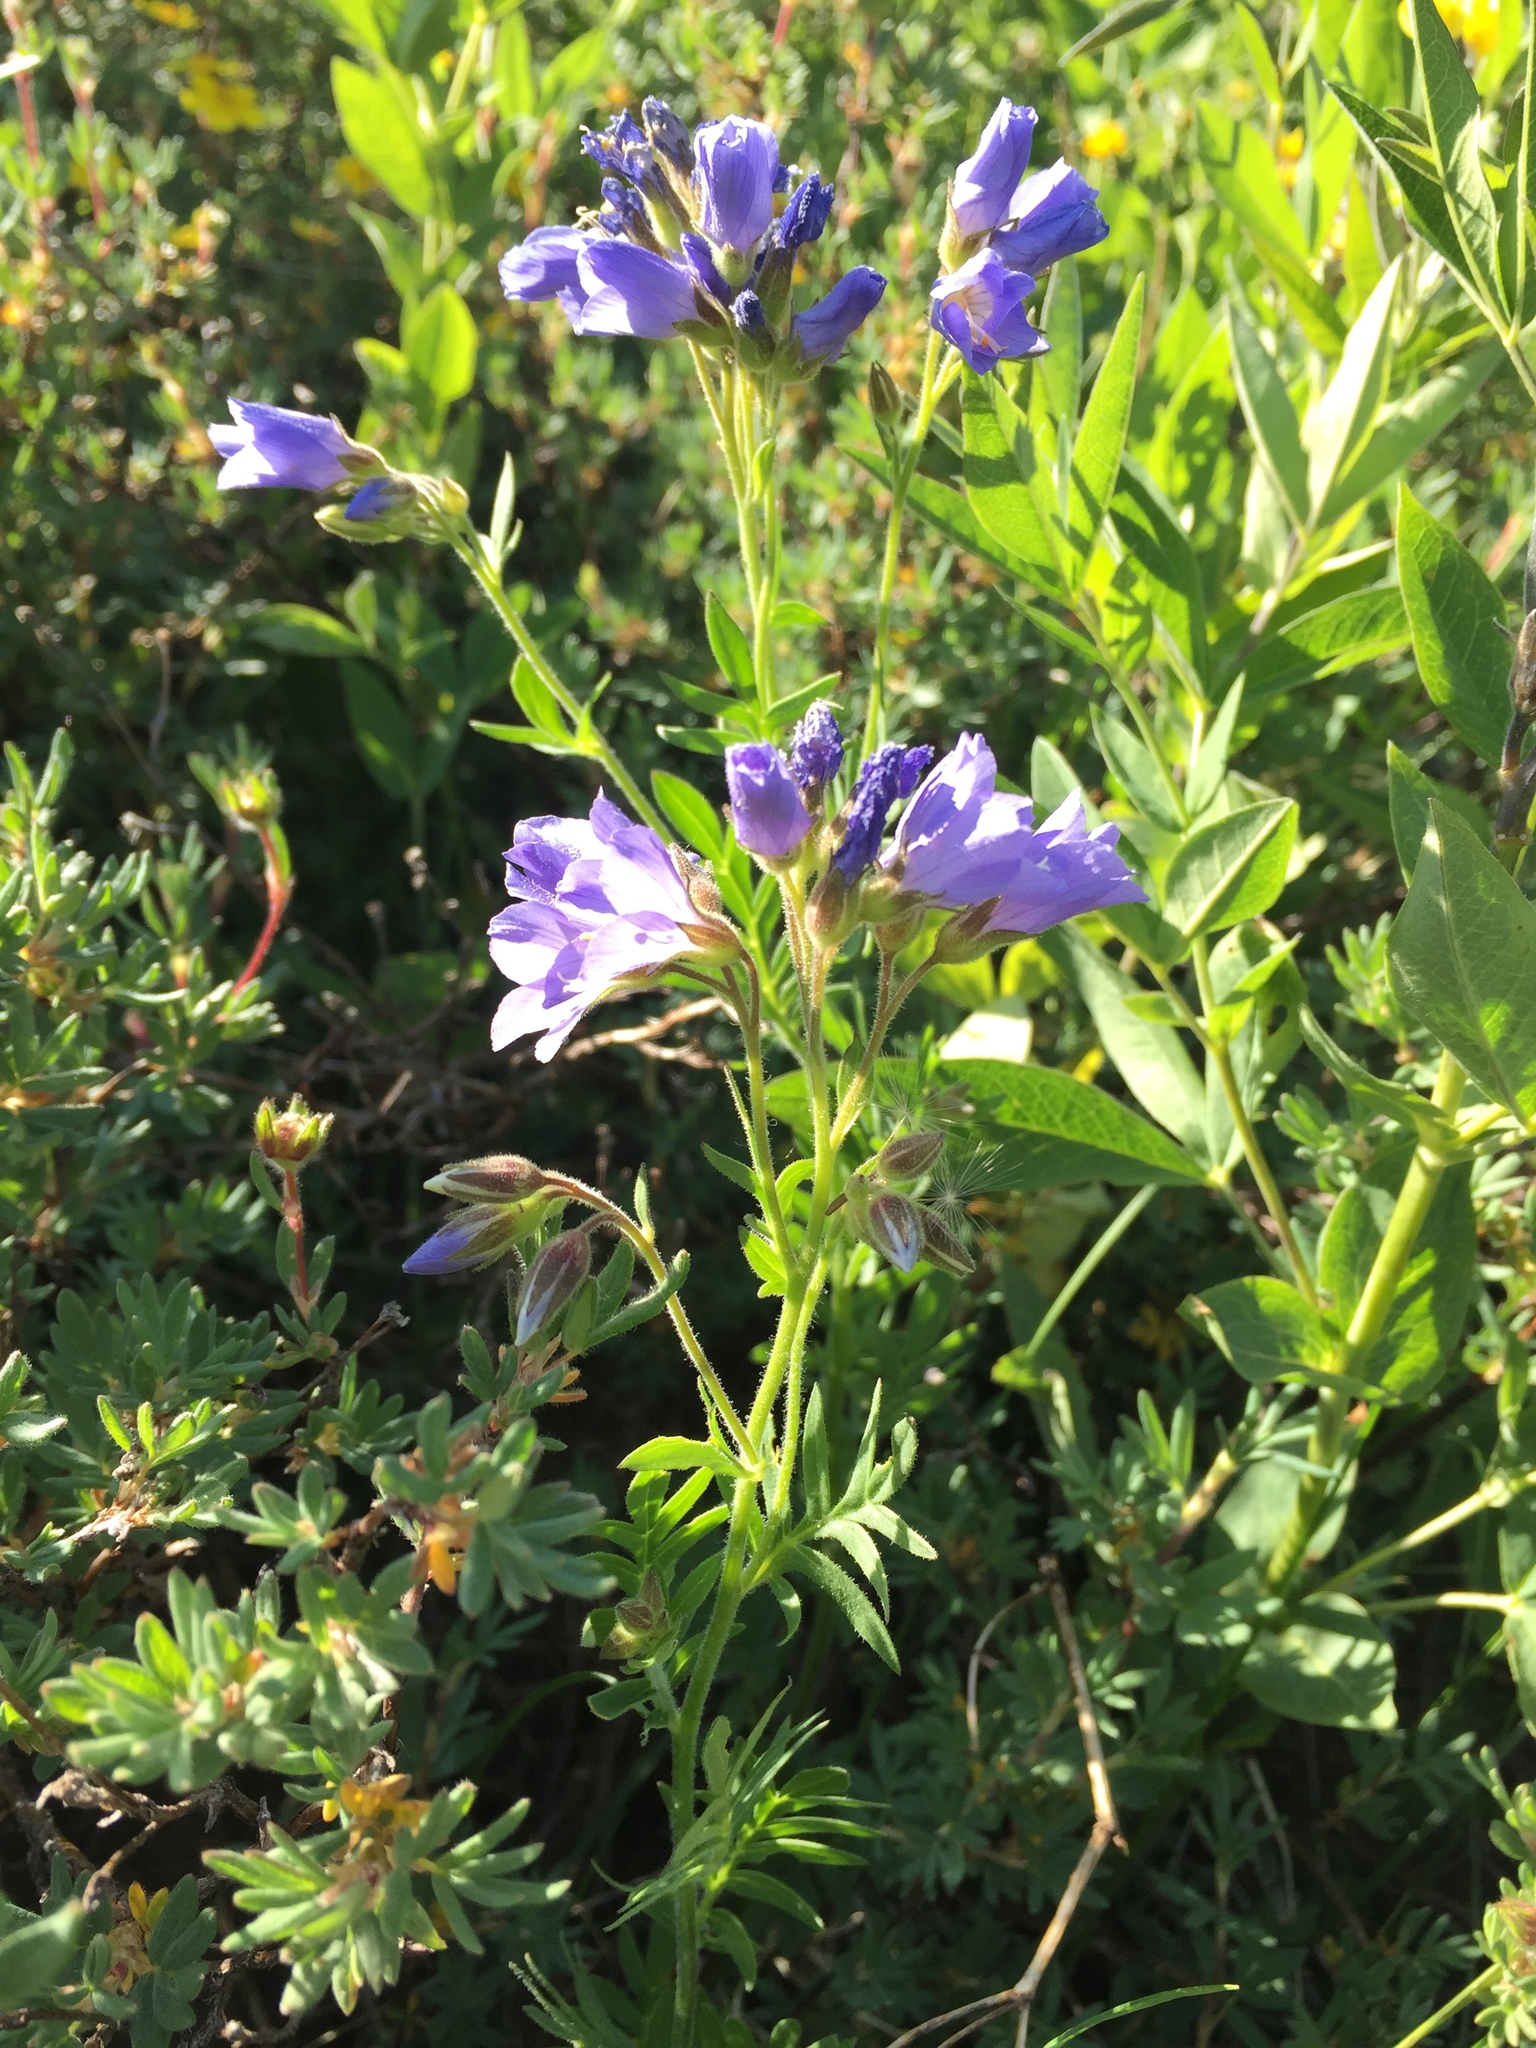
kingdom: Plantae
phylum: Tracheophyta
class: Magnoliopsida
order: Ericales
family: Polemoniaceae
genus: Polemonium
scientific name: Polemonium foliosissimum
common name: Leafy jacob's-ladder
